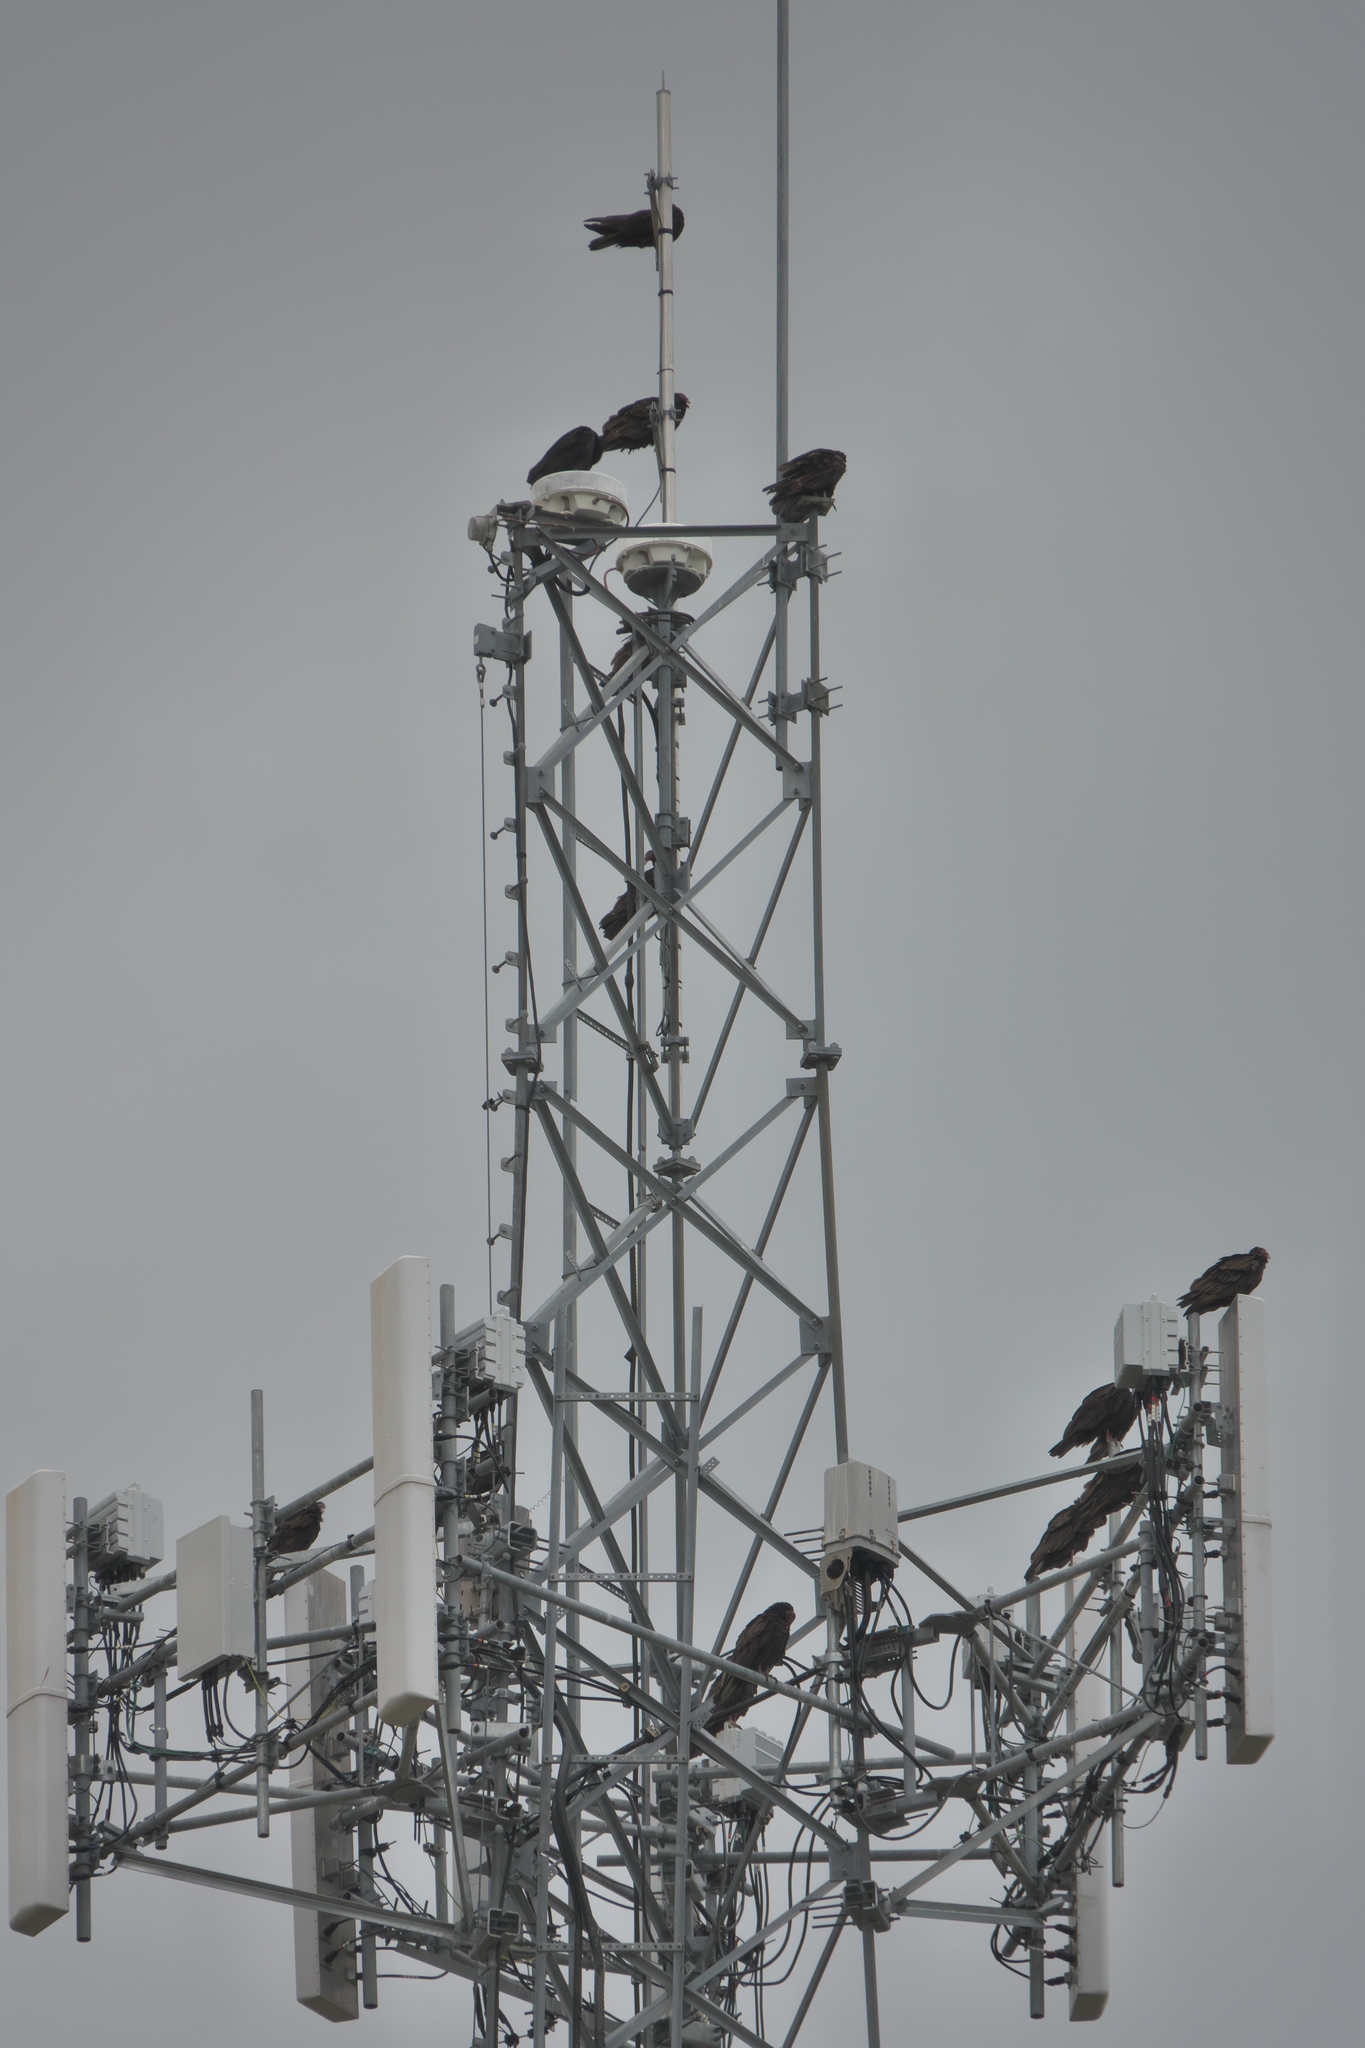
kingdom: Animalia
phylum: Chordata
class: Aves
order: Accipitriformes
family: Cathartidae
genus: Cathartes
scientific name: Cathartes aura
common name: Turkey vulture
